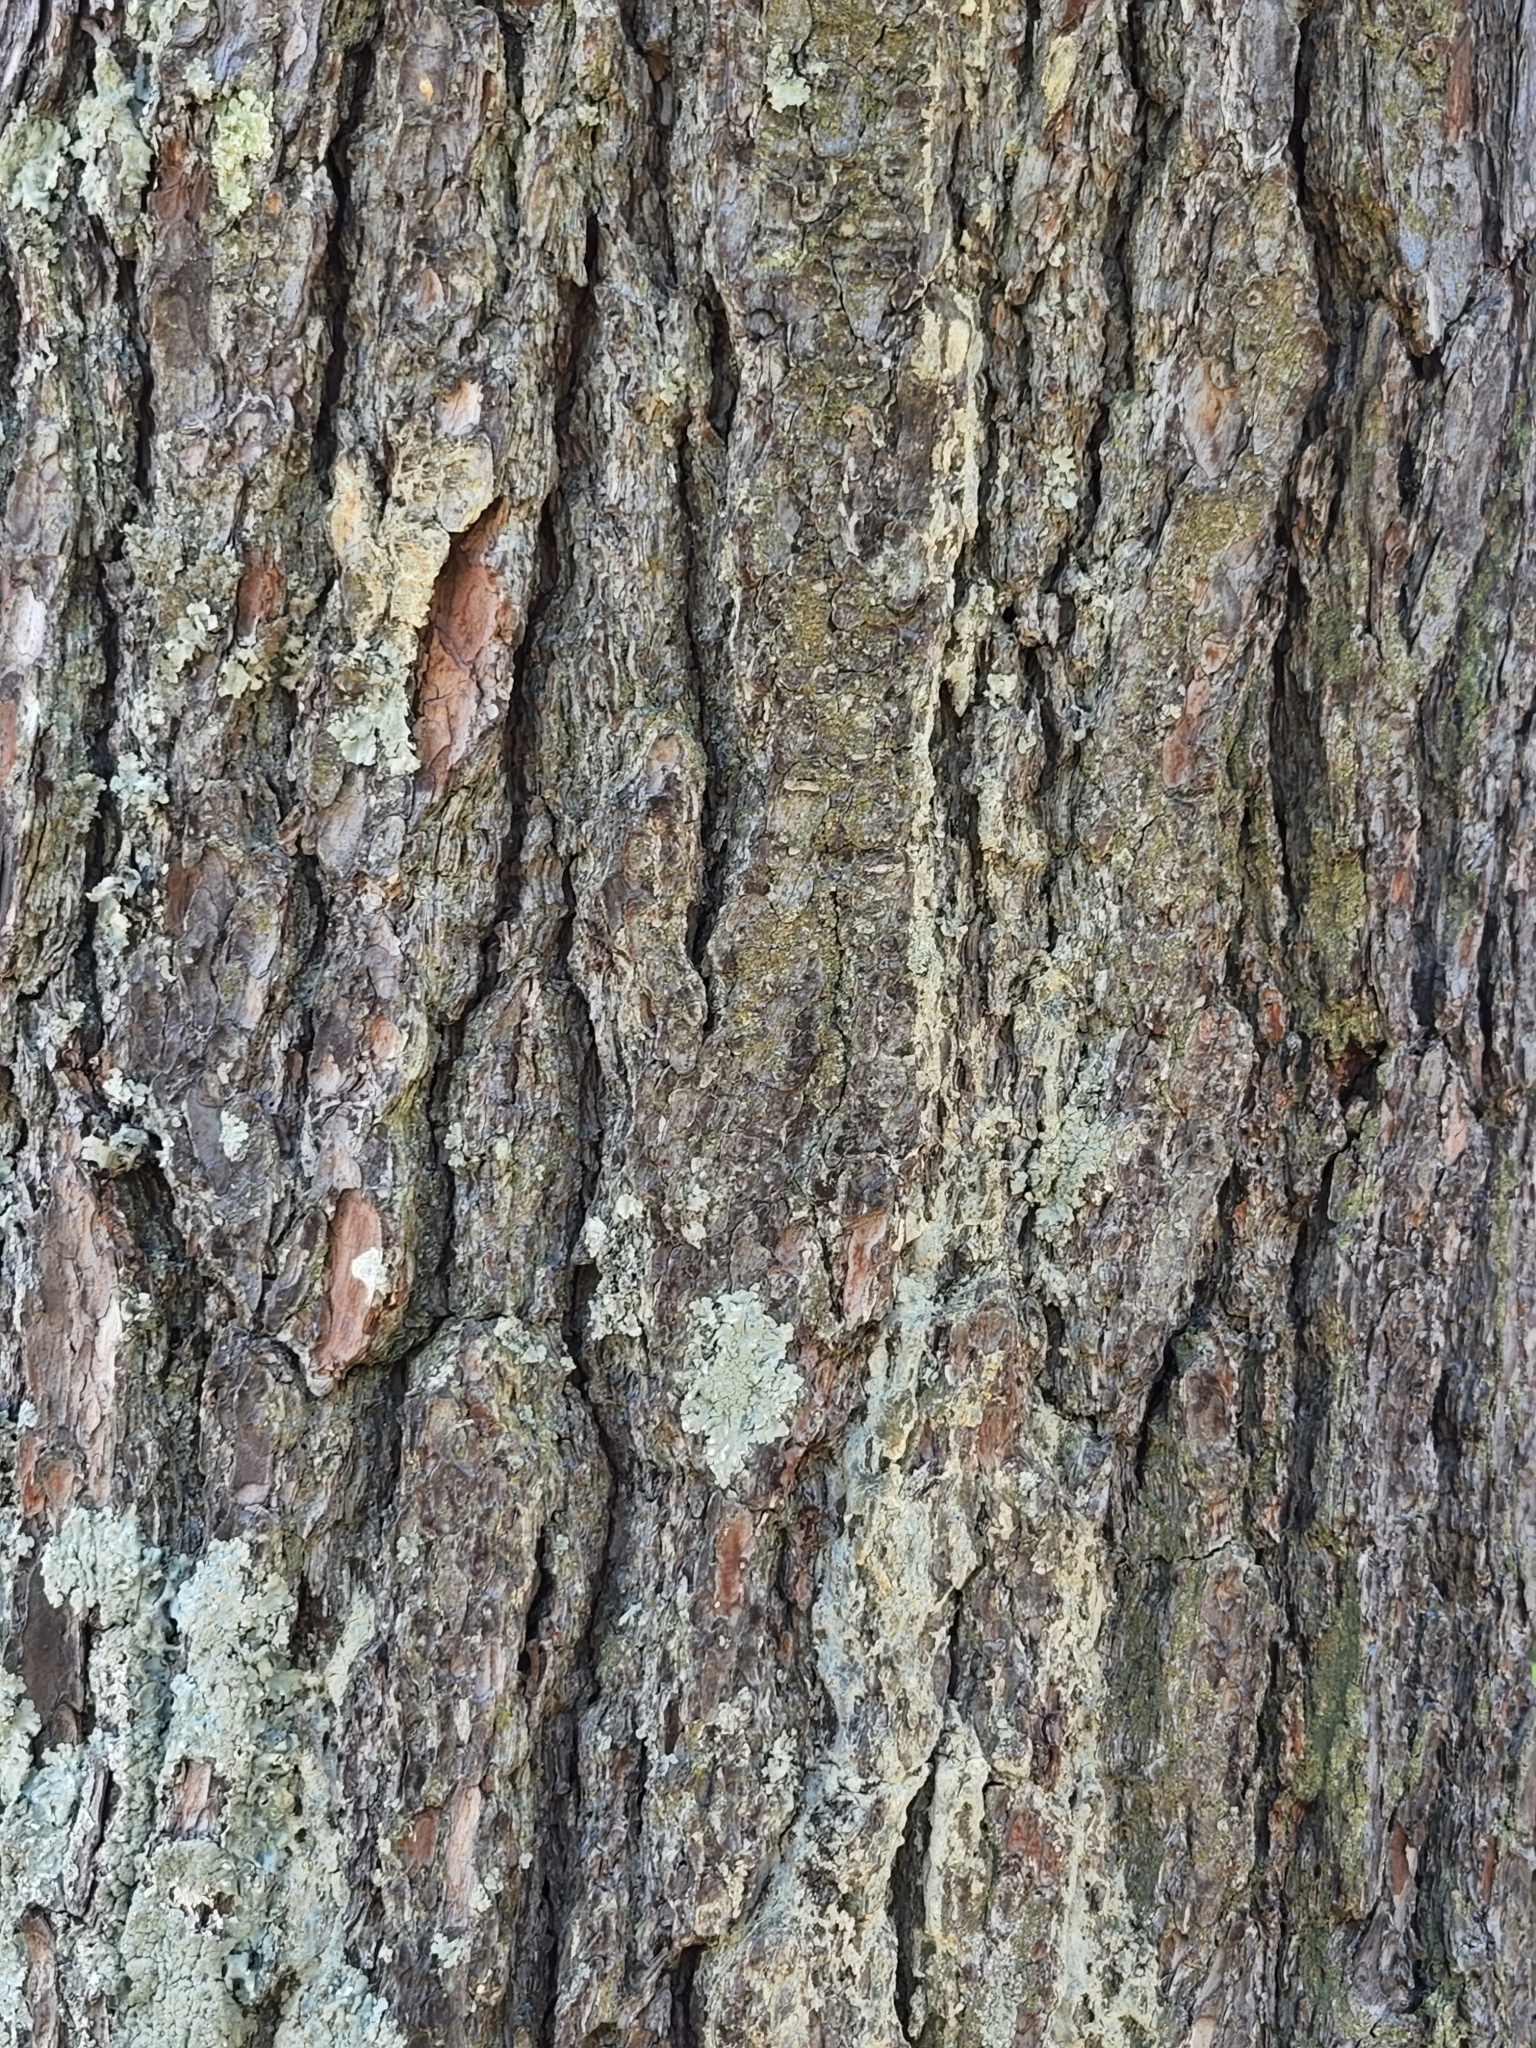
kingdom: Plantae
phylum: Tracheophyta
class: Pinopsida
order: Pinales
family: Pinaceae
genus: Pinus
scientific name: Pinus strobus
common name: Weymouth pine
